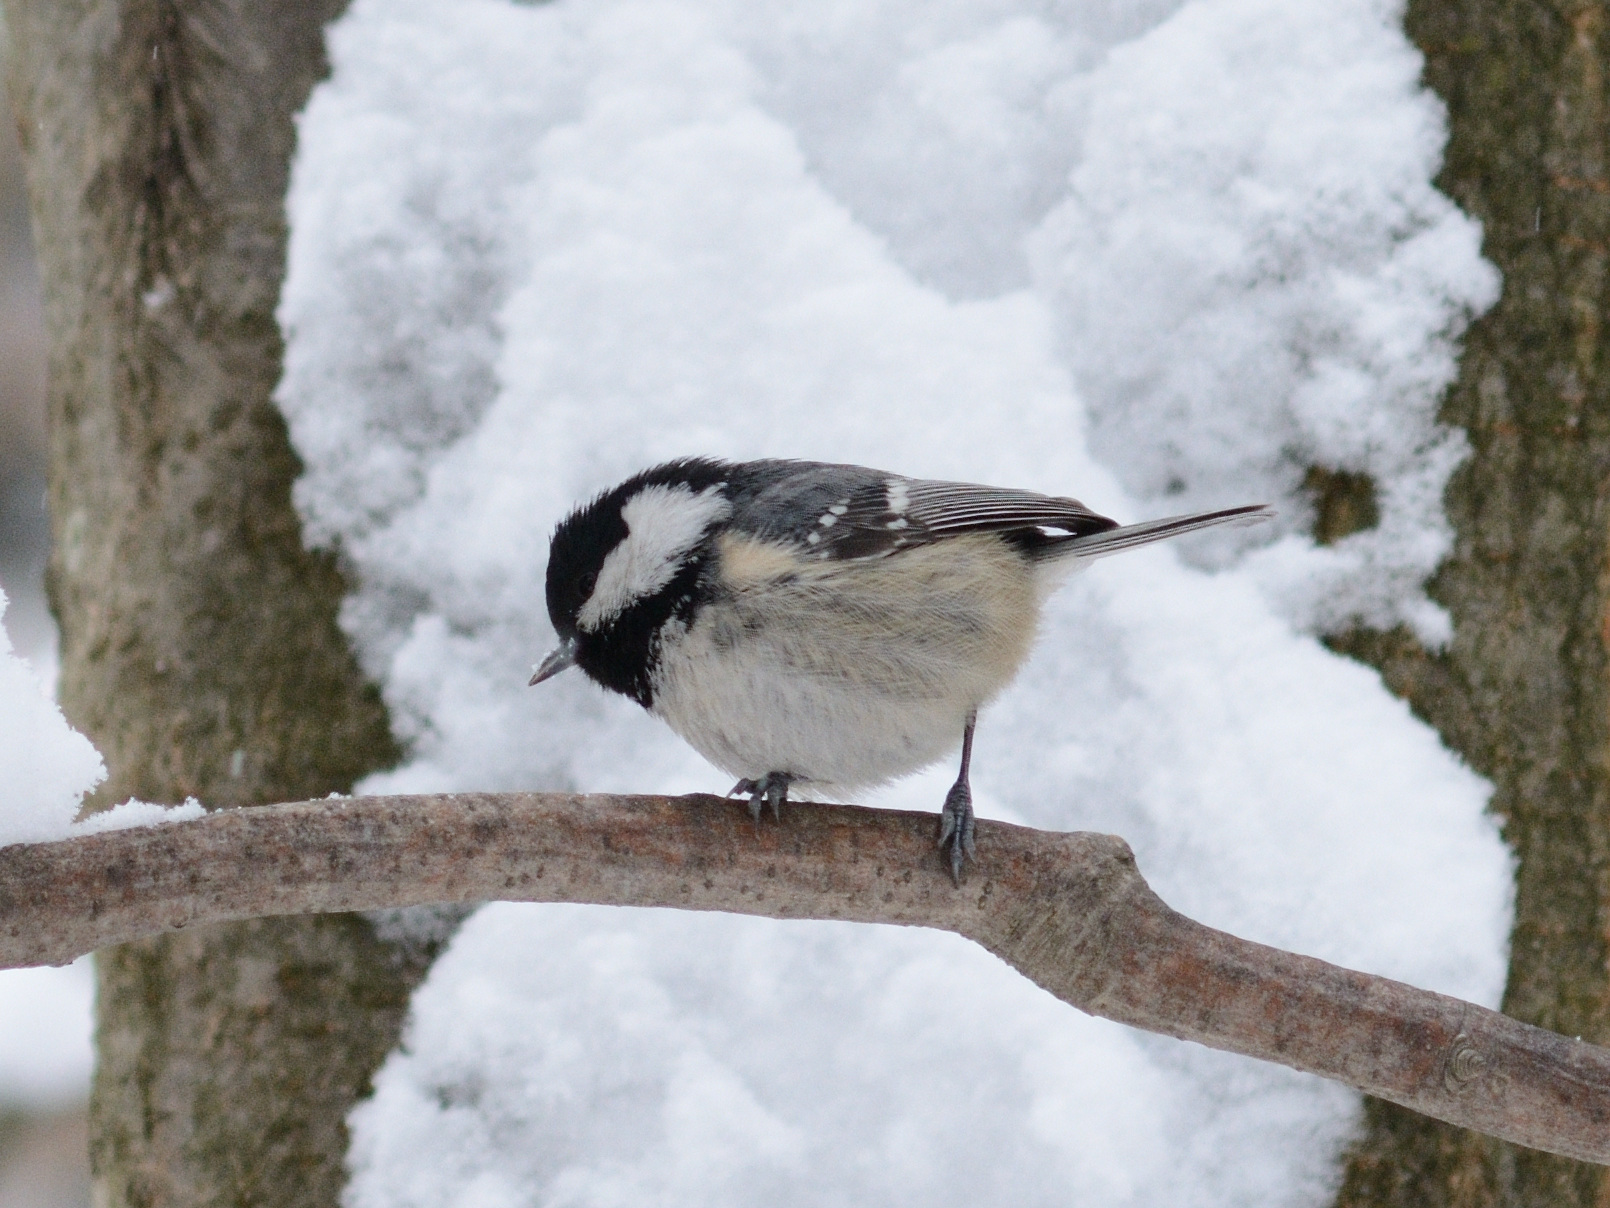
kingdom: Animalia
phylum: Chordata
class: Aves
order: Passeriformes
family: Paridae
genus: Periparus
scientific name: Periparus ater
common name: Coal tit
